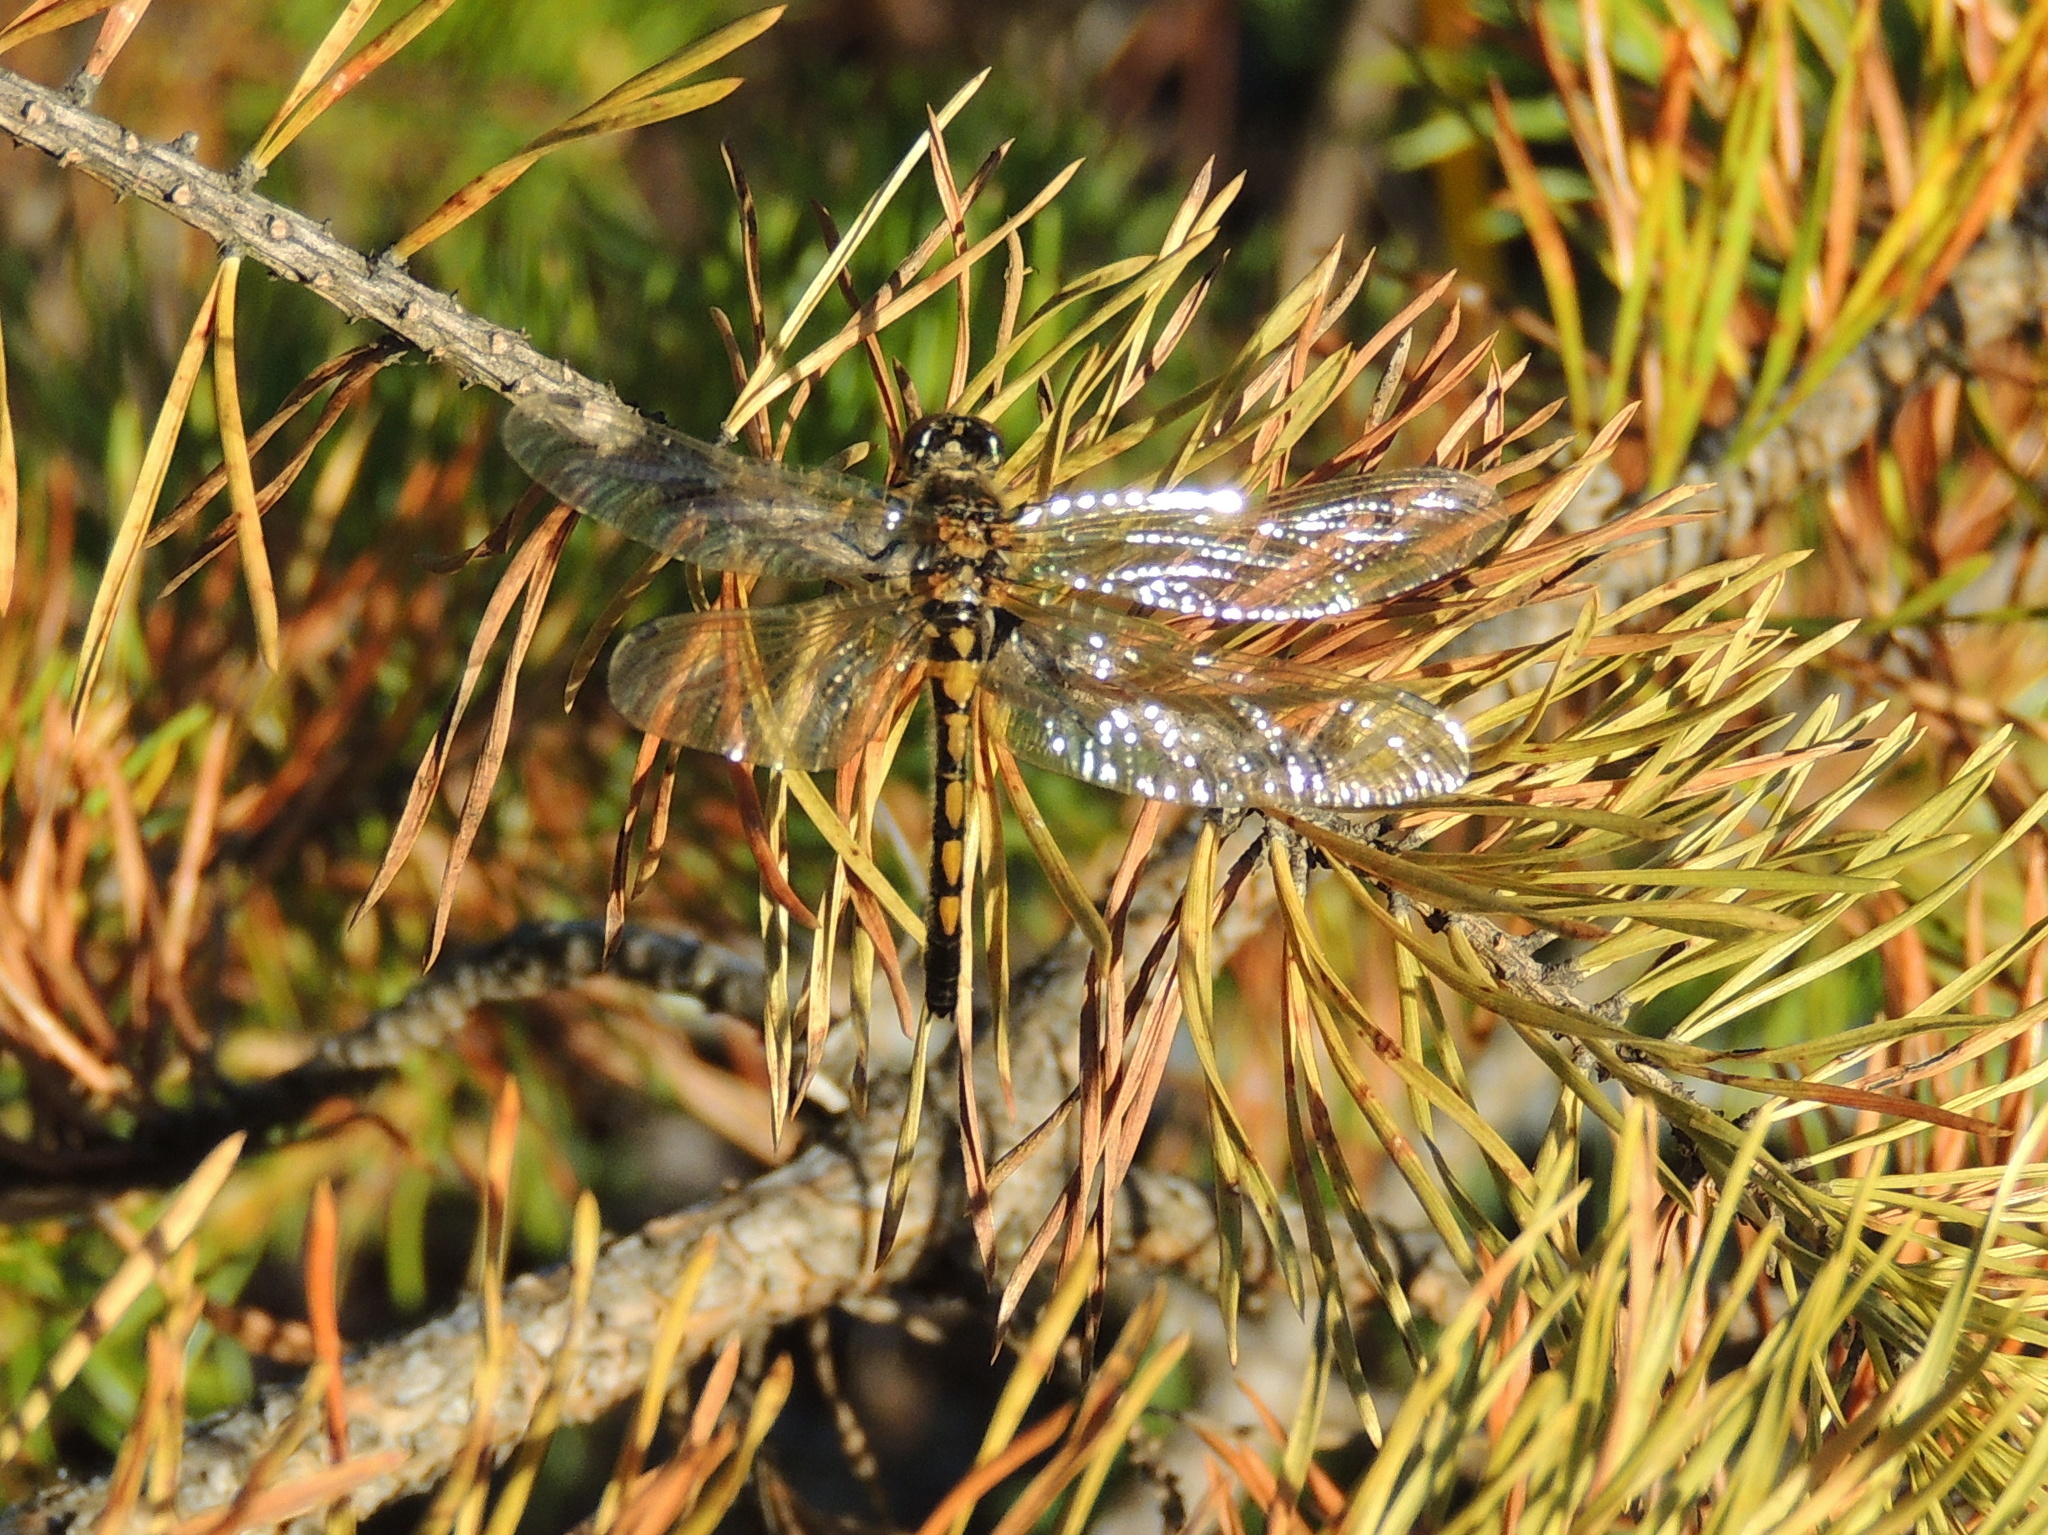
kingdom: Animalia
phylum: Arthropoda
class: Insecta
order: Odonata
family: Libellulidae
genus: Leucorrhinia
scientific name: Leucorrhinia rubicunda
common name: Ruby whiteface
